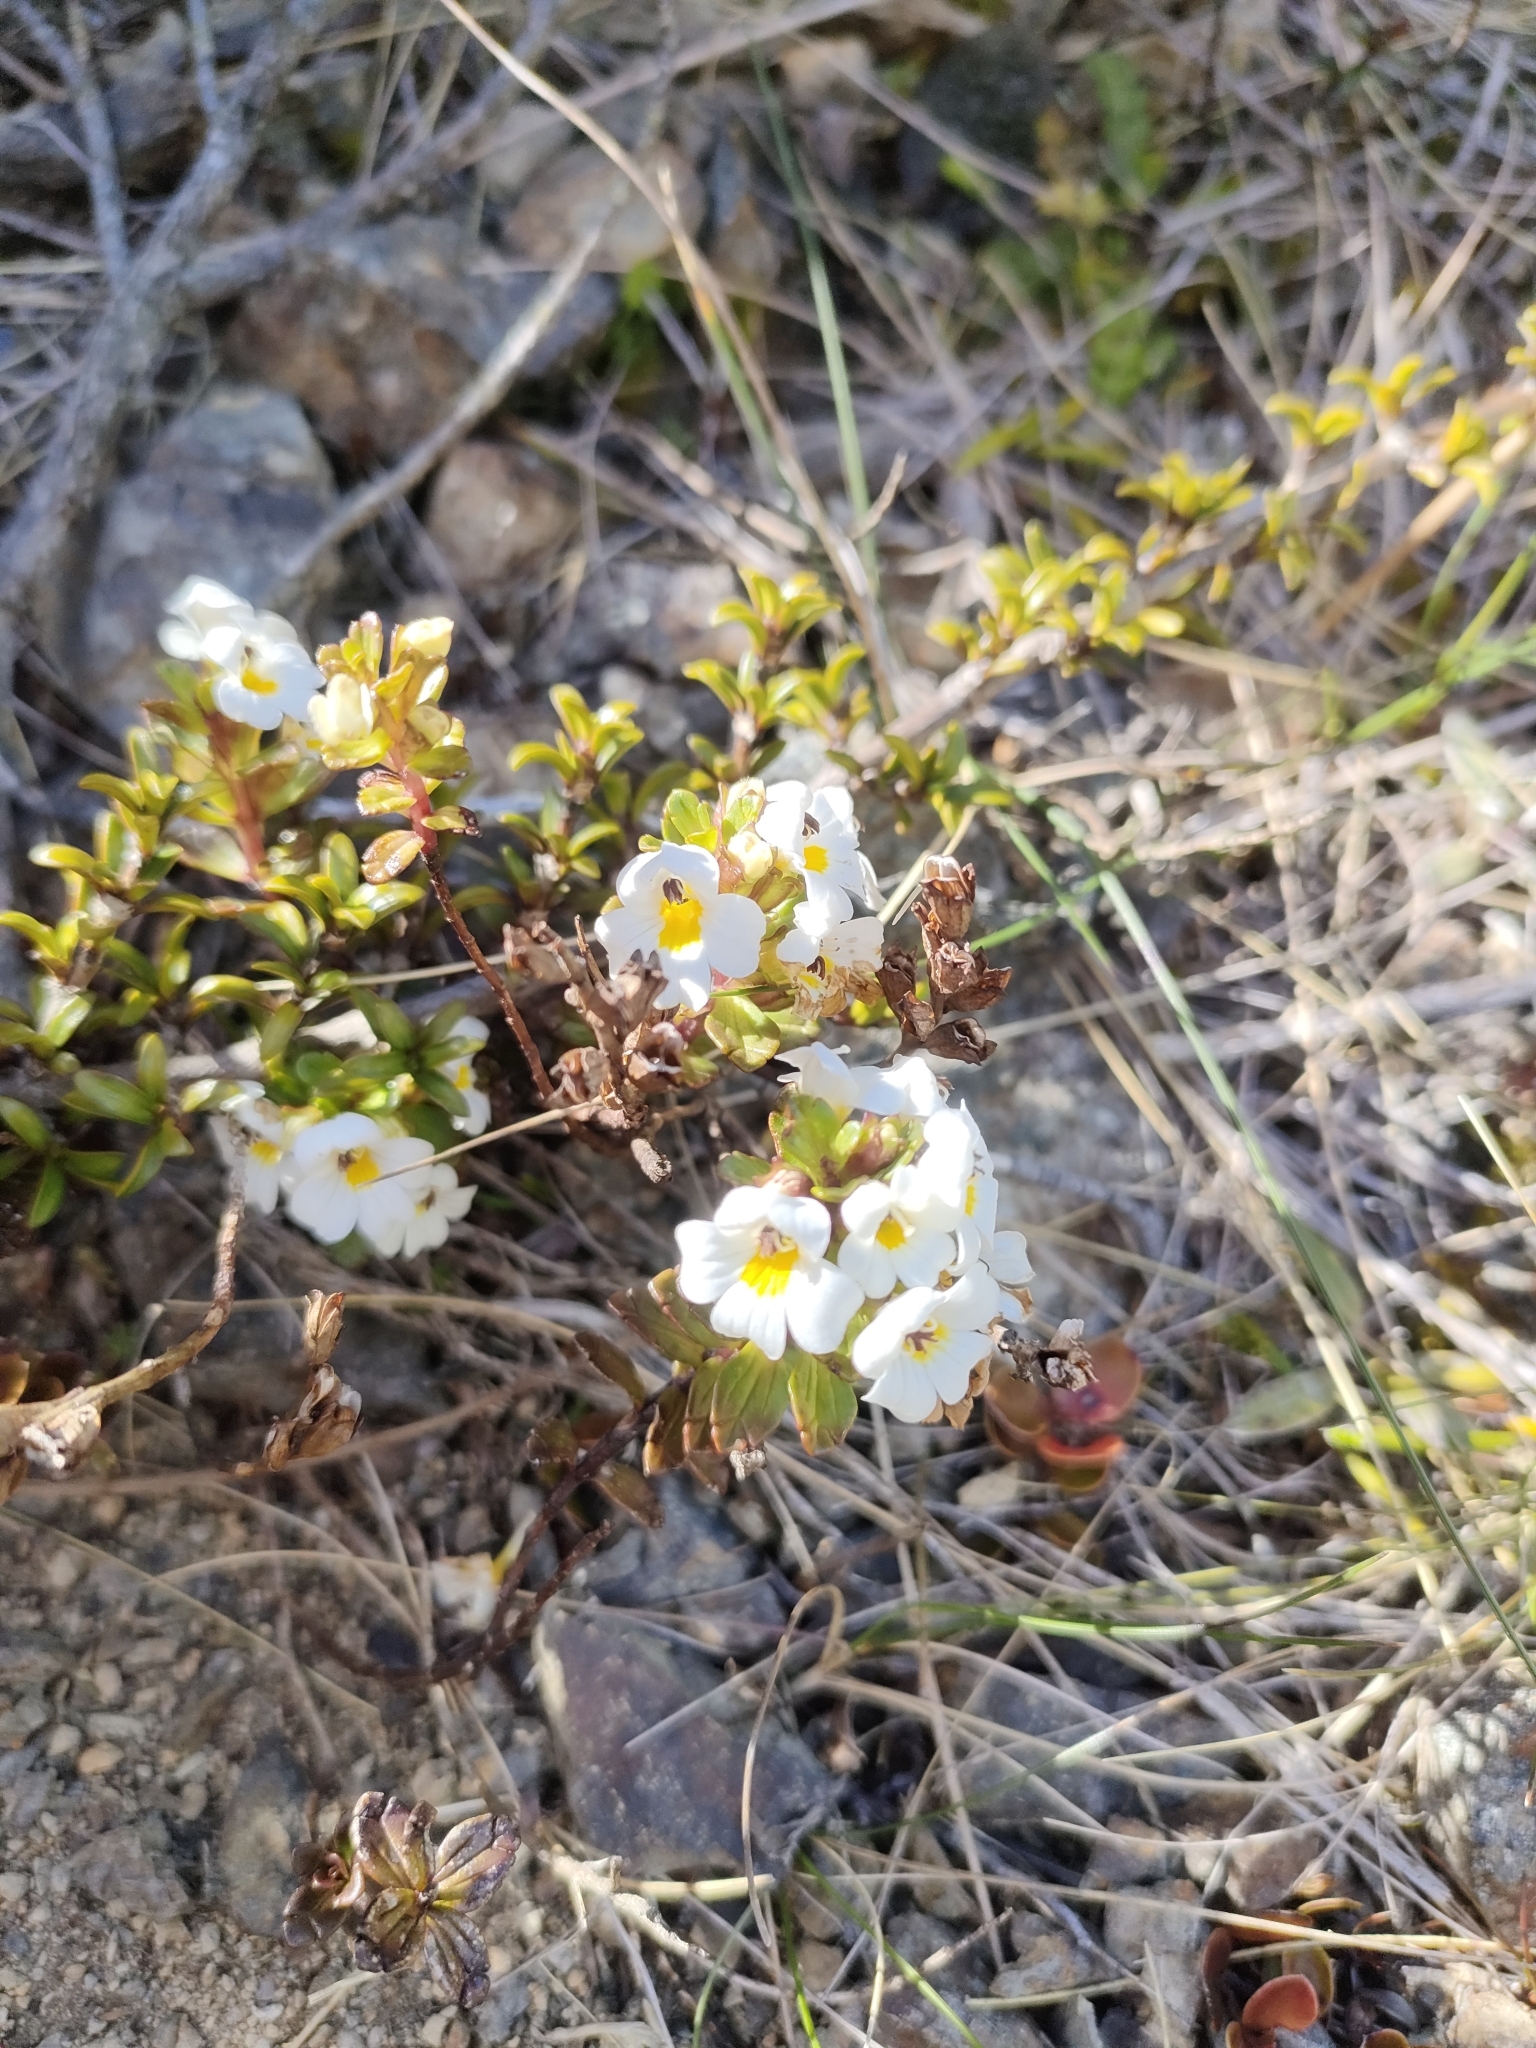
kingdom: Plantae
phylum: Tracheophyta
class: Magnoliopsida
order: Lamiales
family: Orobanchaceae
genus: Euphrasia
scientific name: Euphrasia monroi
